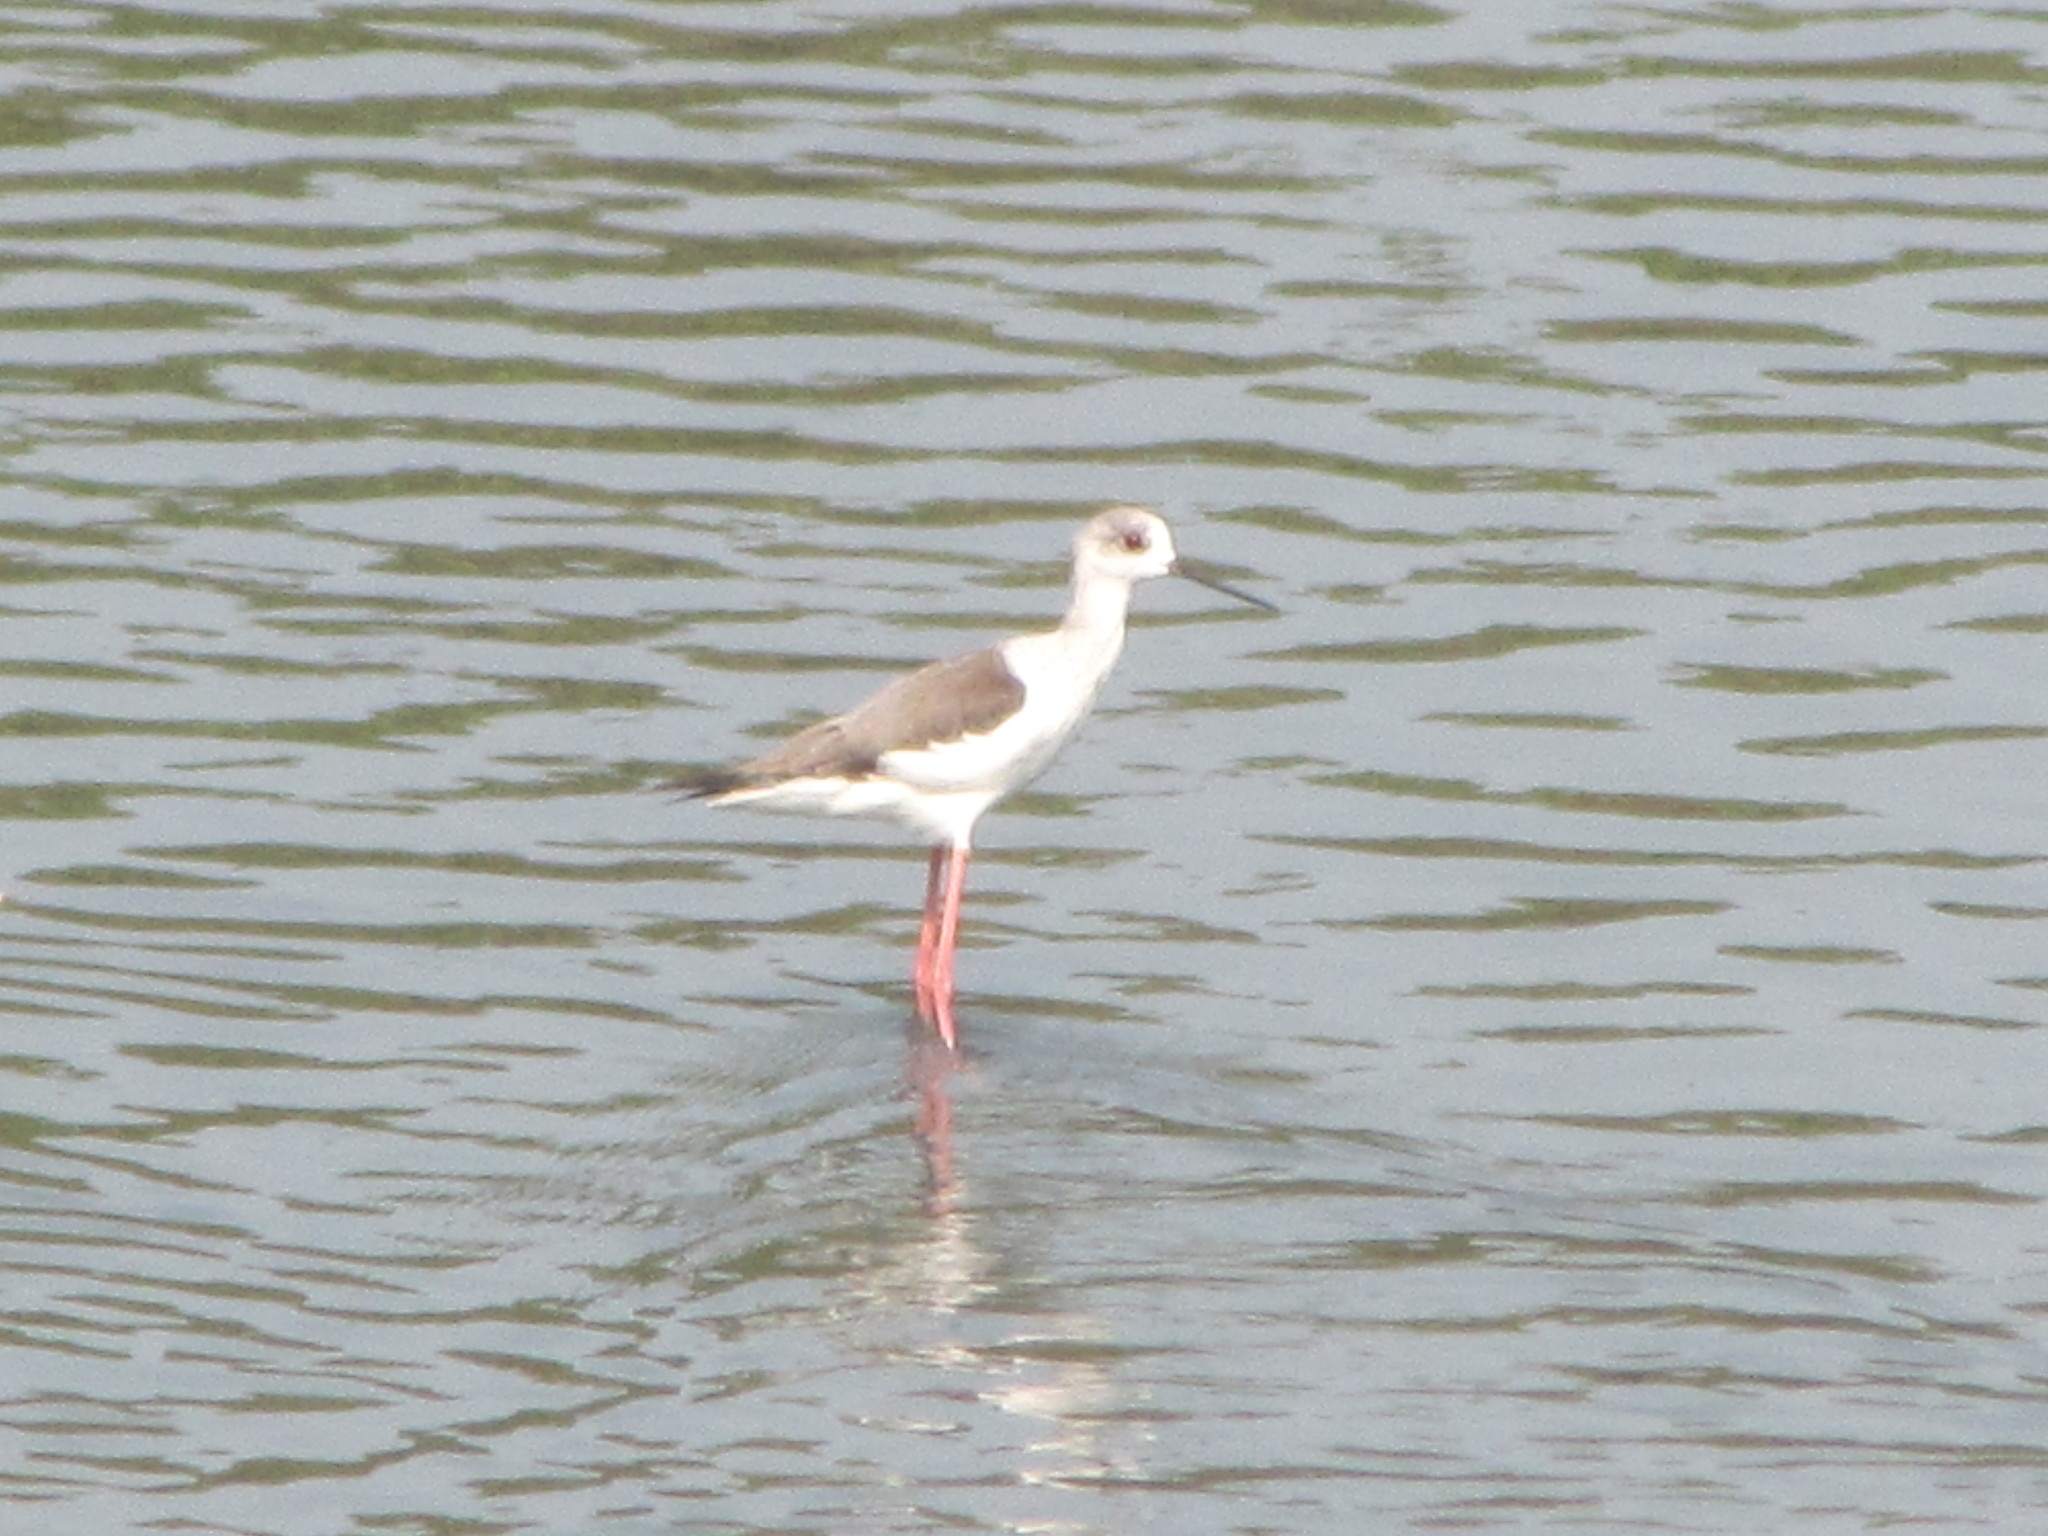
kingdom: Animalia
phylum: Chordata
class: Aves
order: Charadriiformes
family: Recurvirostridae
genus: Himantopus
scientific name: Himantopus himantopus
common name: Black-winged stilt
